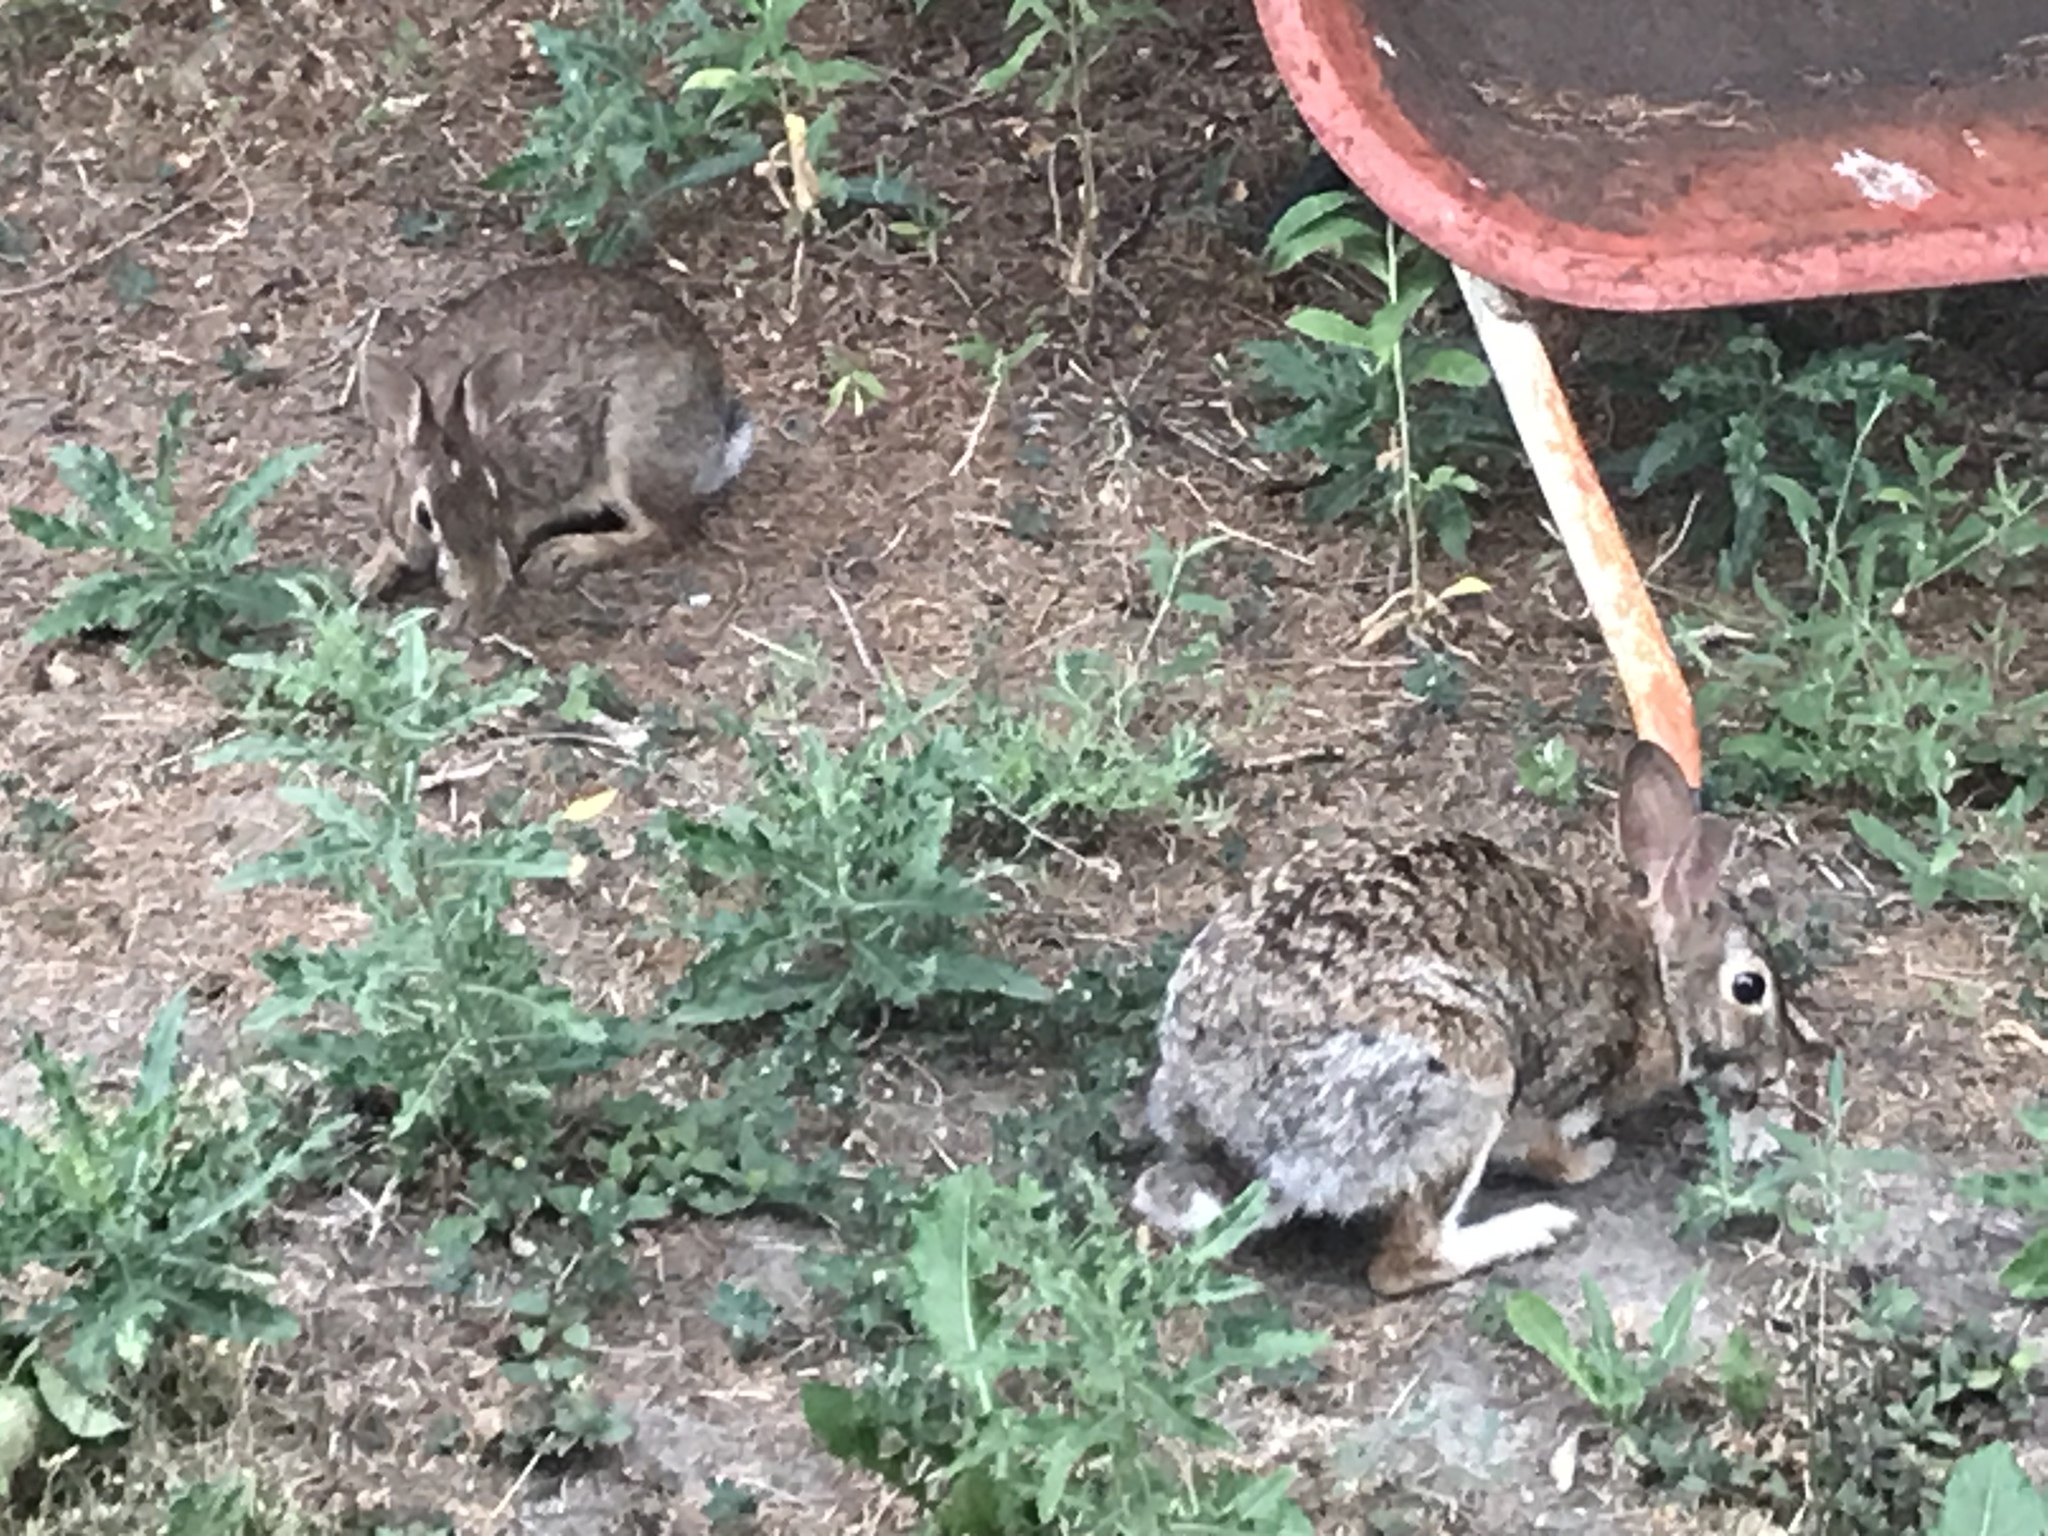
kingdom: Animalia
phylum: Chordata
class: Mammalia
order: Lagomorpha
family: Leporidae
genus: Sylvilagus
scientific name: Sylvilagus floridanus
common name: Eastern cottontail
